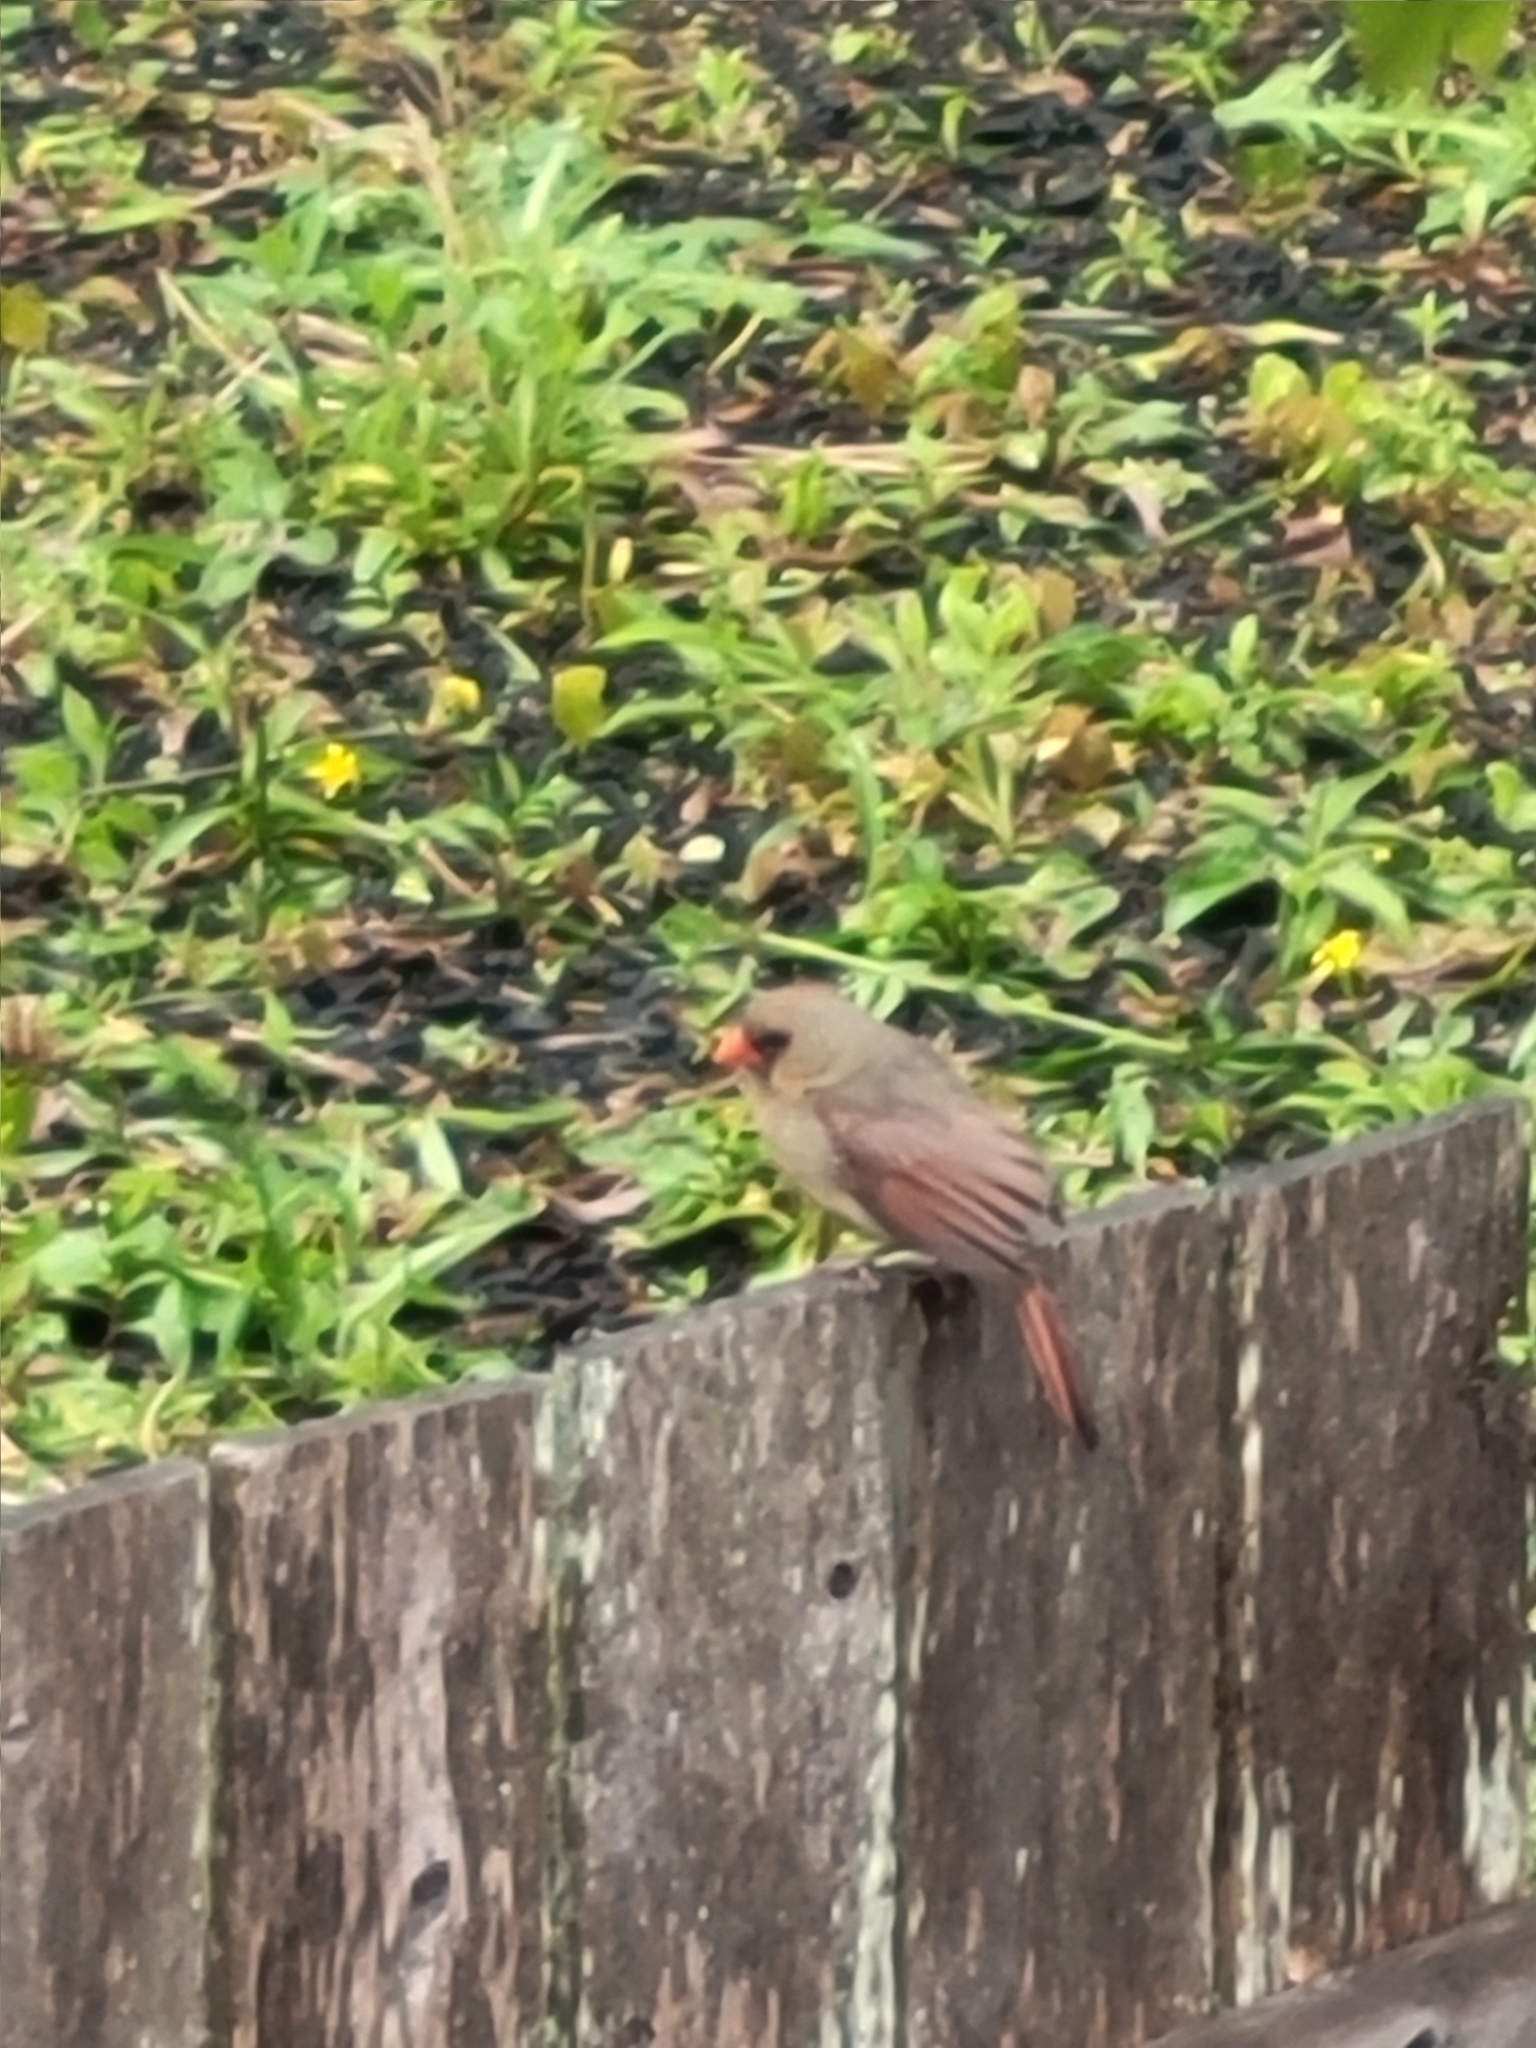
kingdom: Animalia
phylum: Chordata
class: Aves
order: Passeriformes
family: Cardinalidae
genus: Cardinalis
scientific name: Cardinalis cardinalis
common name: Northern cardinal
